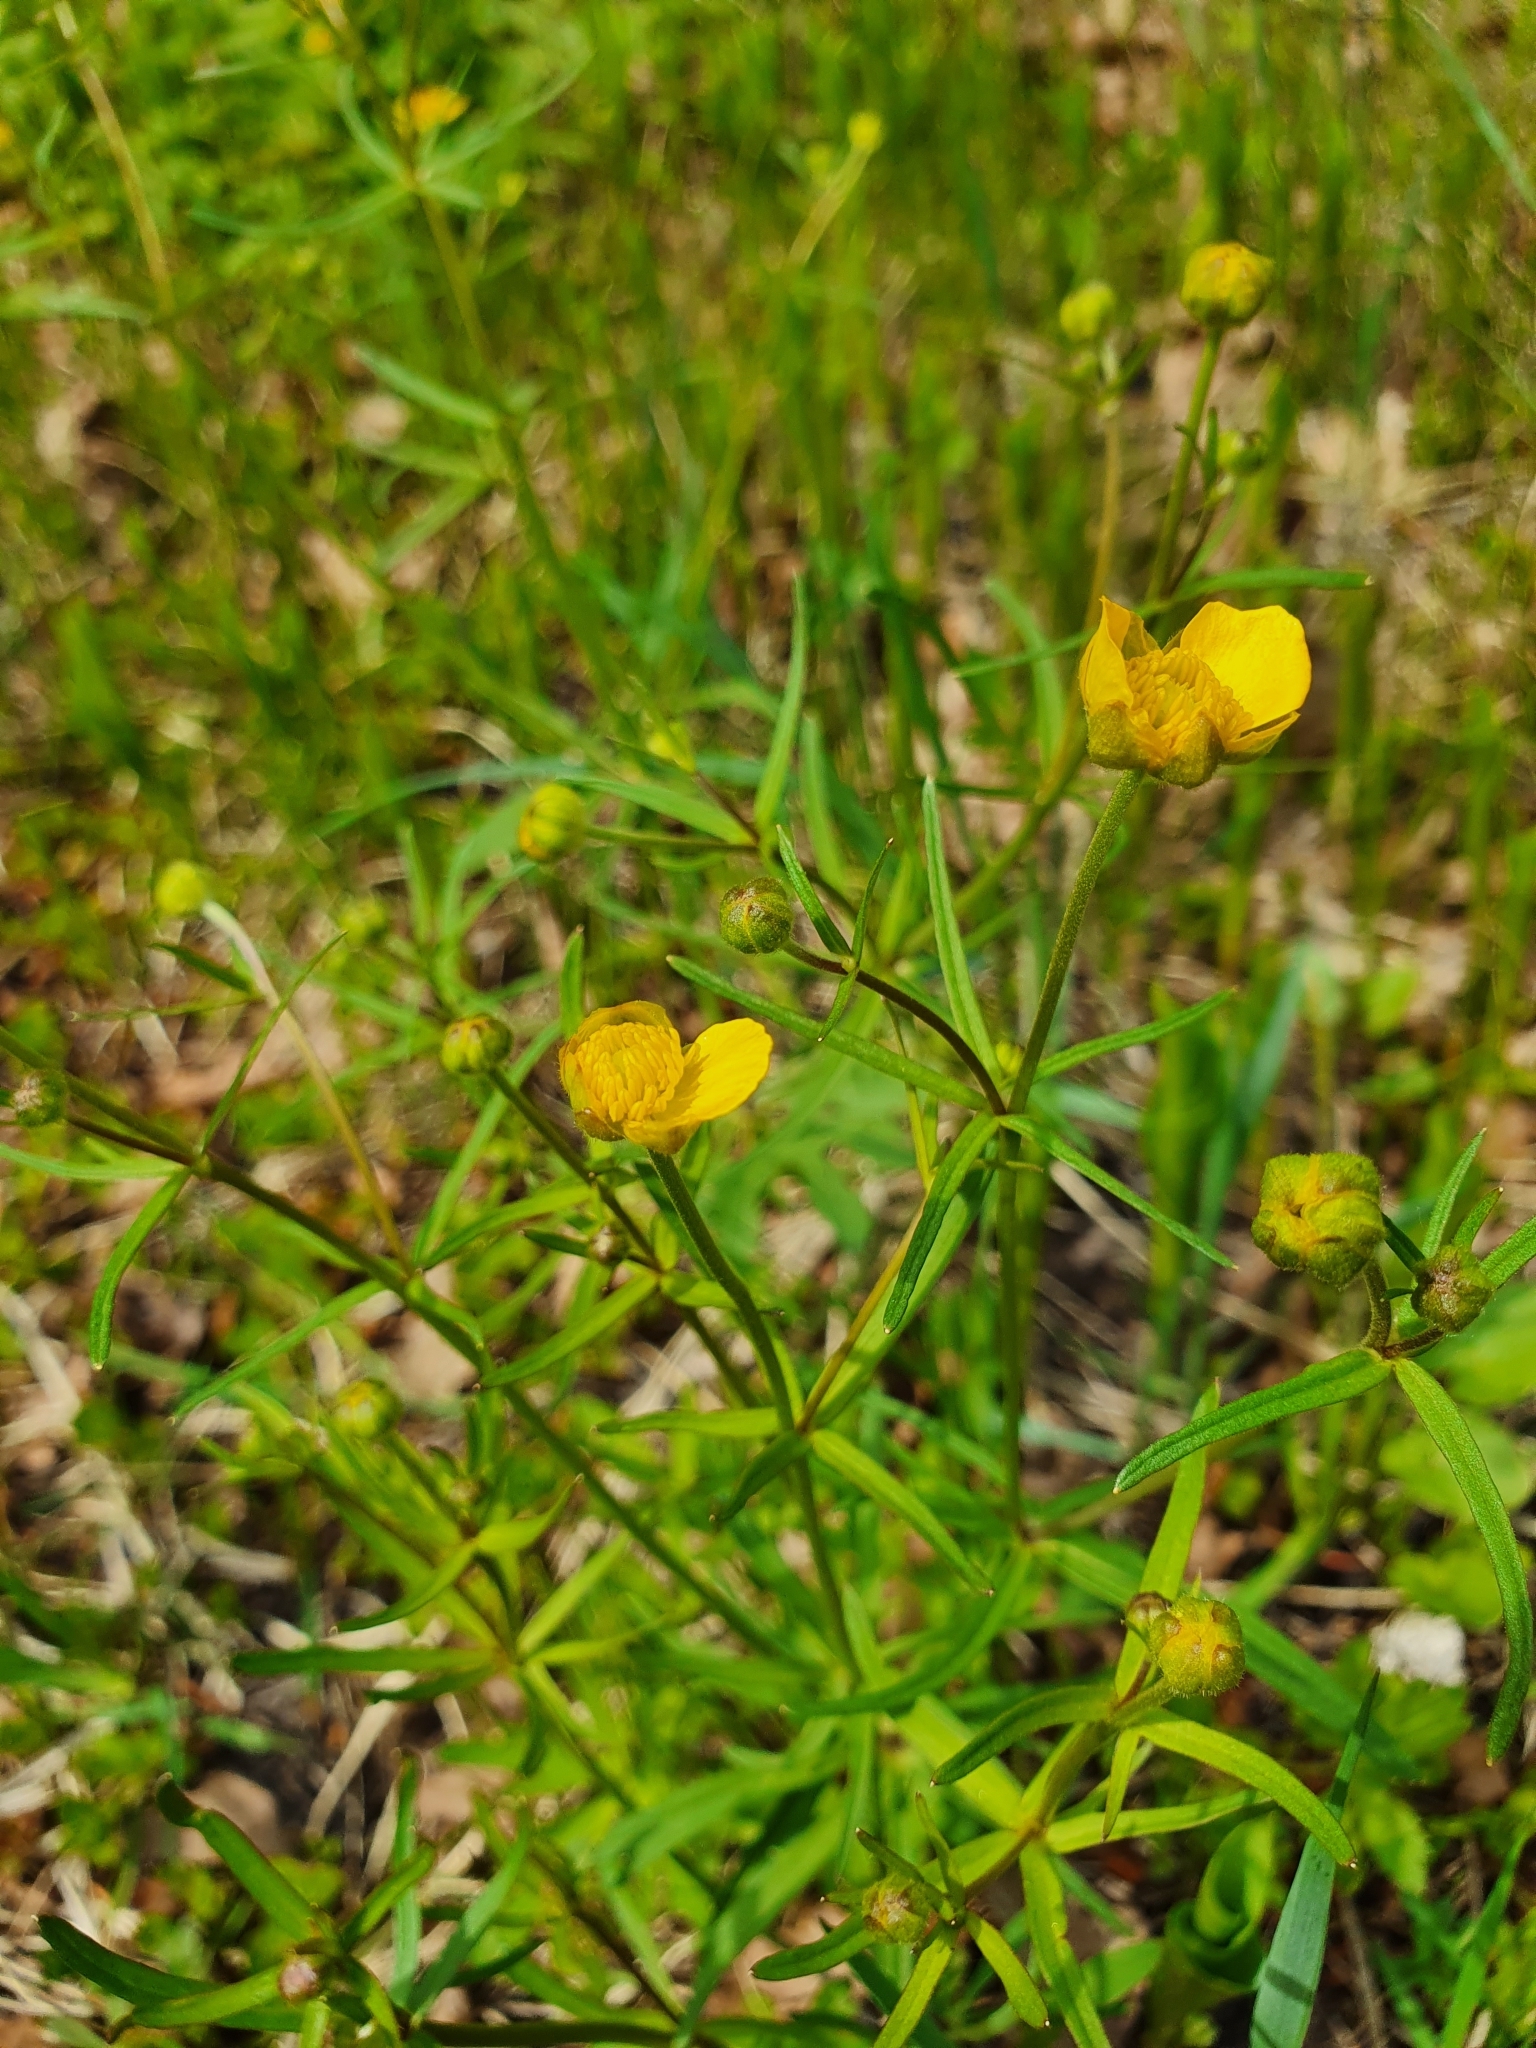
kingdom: Plantae
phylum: Tracheophyta
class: Magnoliopsida
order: Ranunculales
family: Ranunculaceae
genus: Ranunculus
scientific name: Ranunculus auricomus
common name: Goldilocks buttercup
